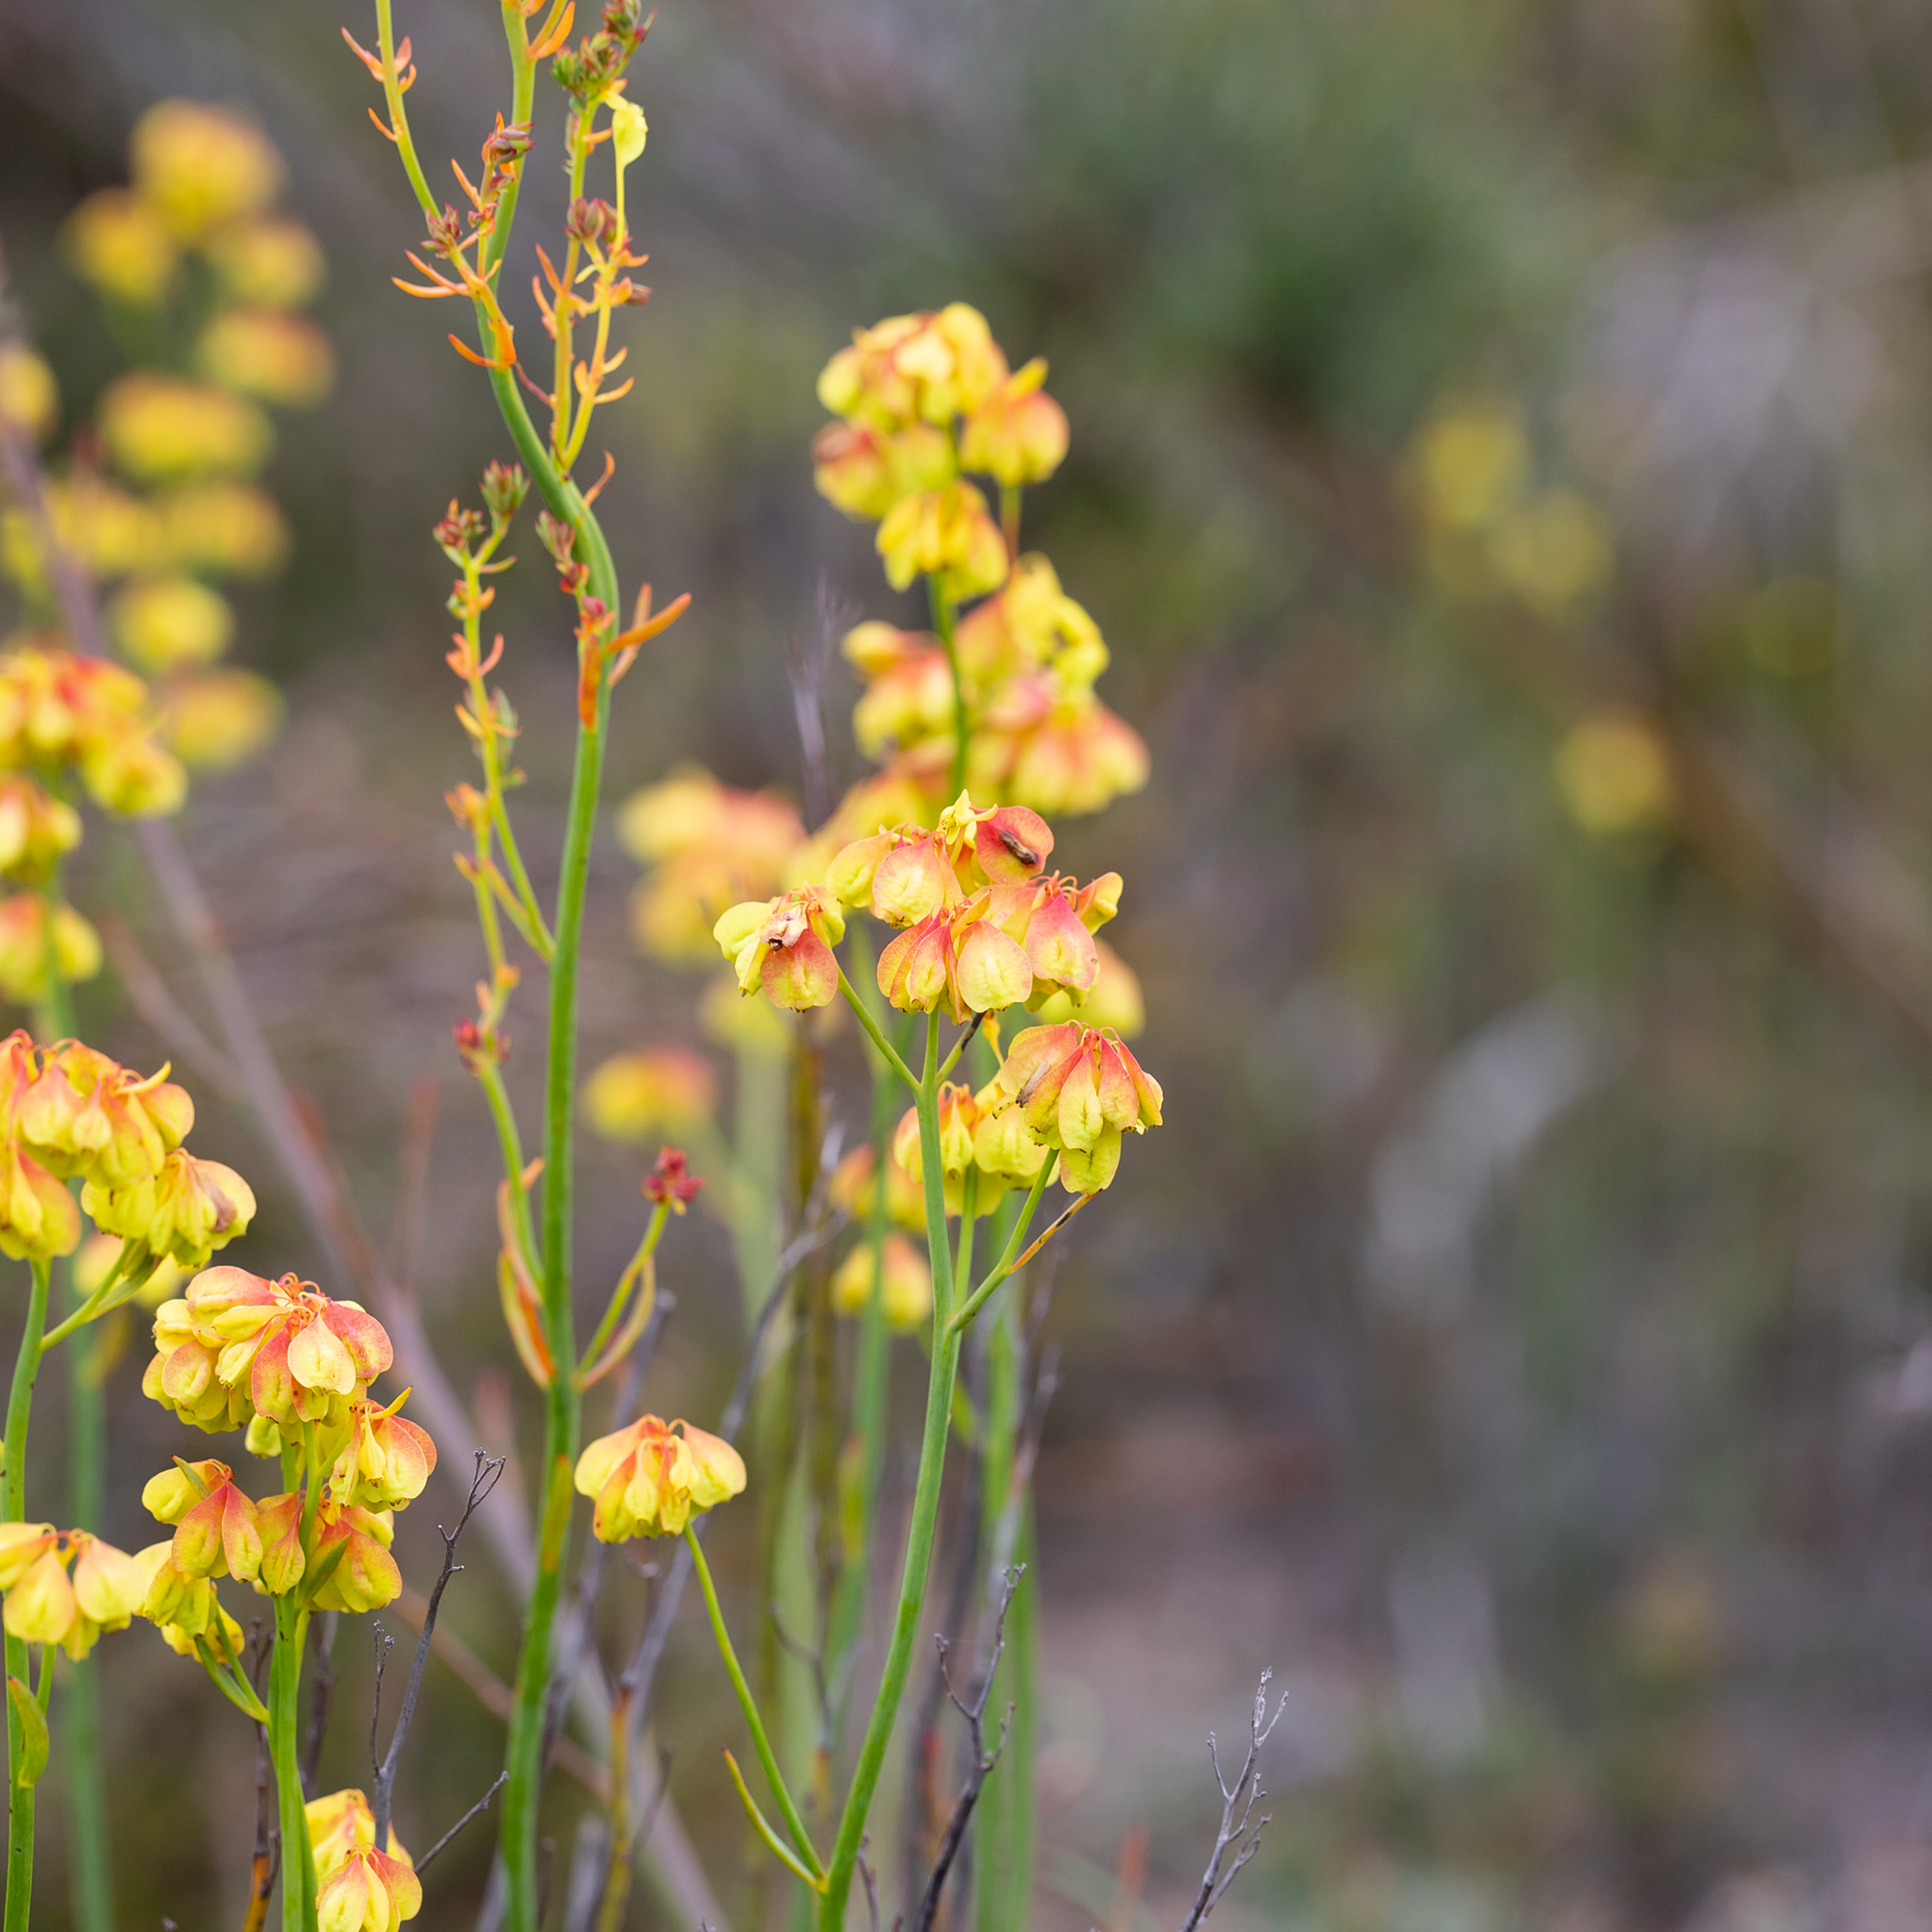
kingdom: Plantae
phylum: Tracheophyta
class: Magnoliopsida
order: Saxifragales
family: Haloragaceae
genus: Glischrocaryon
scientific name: Glischrocaryon behrii
